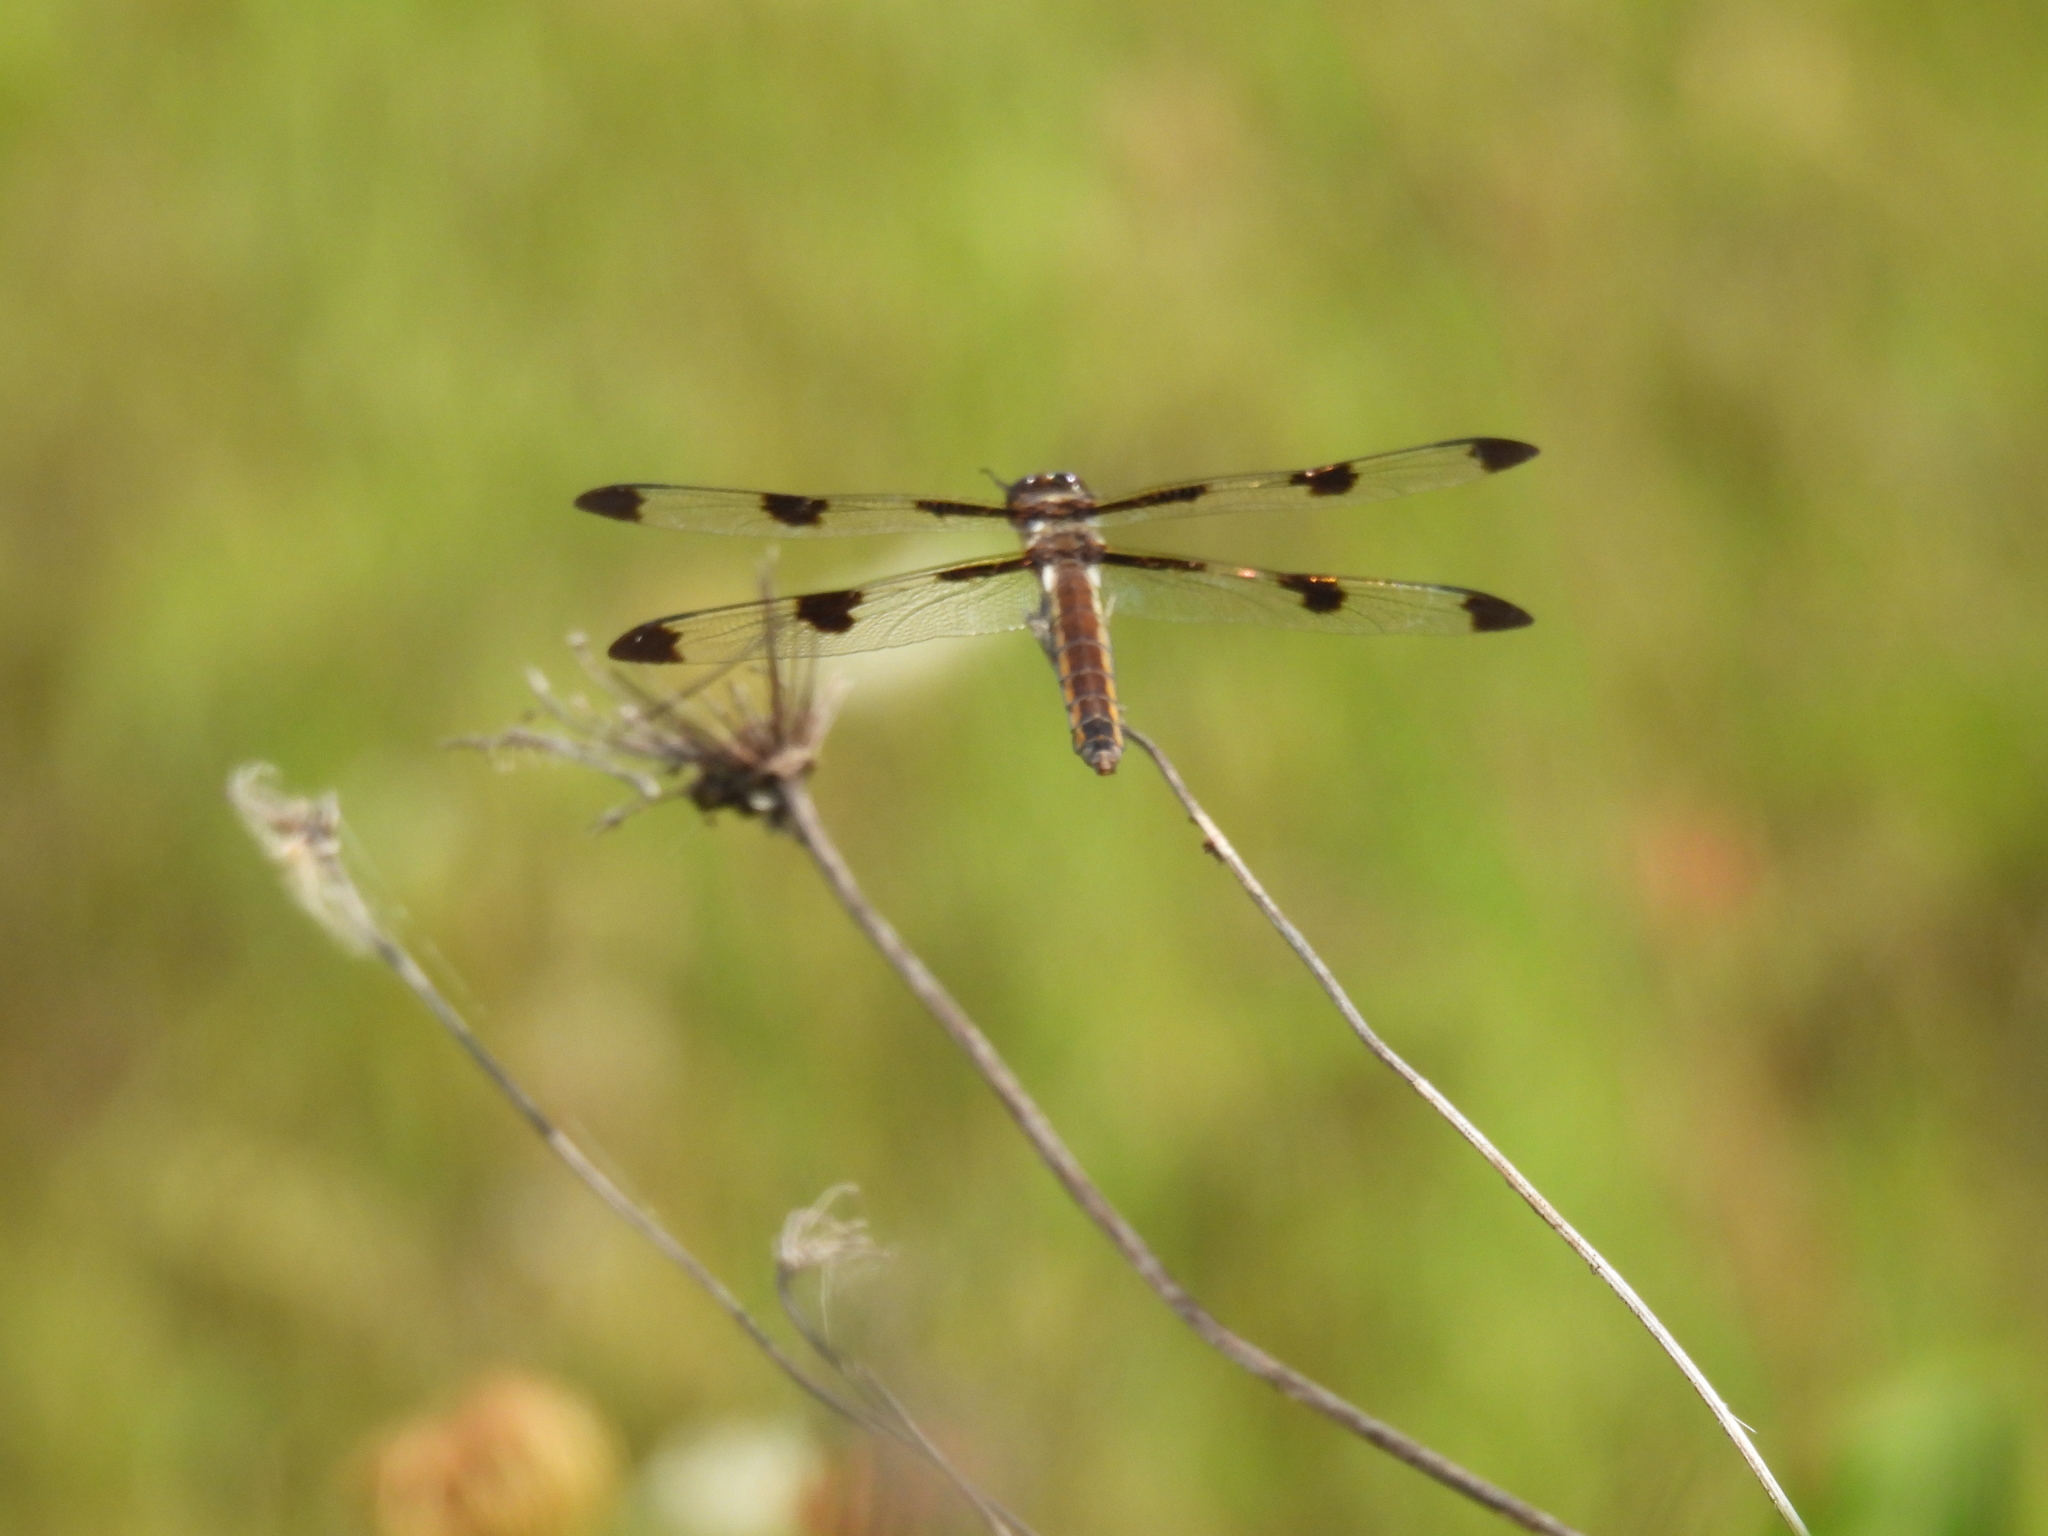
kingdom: Animalia
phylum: Arthropoda
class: Insecta
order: Odonata
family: Libellulidae
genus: Libellula
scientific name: Libellula pulchella
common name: Twelve-spotted skimmer
